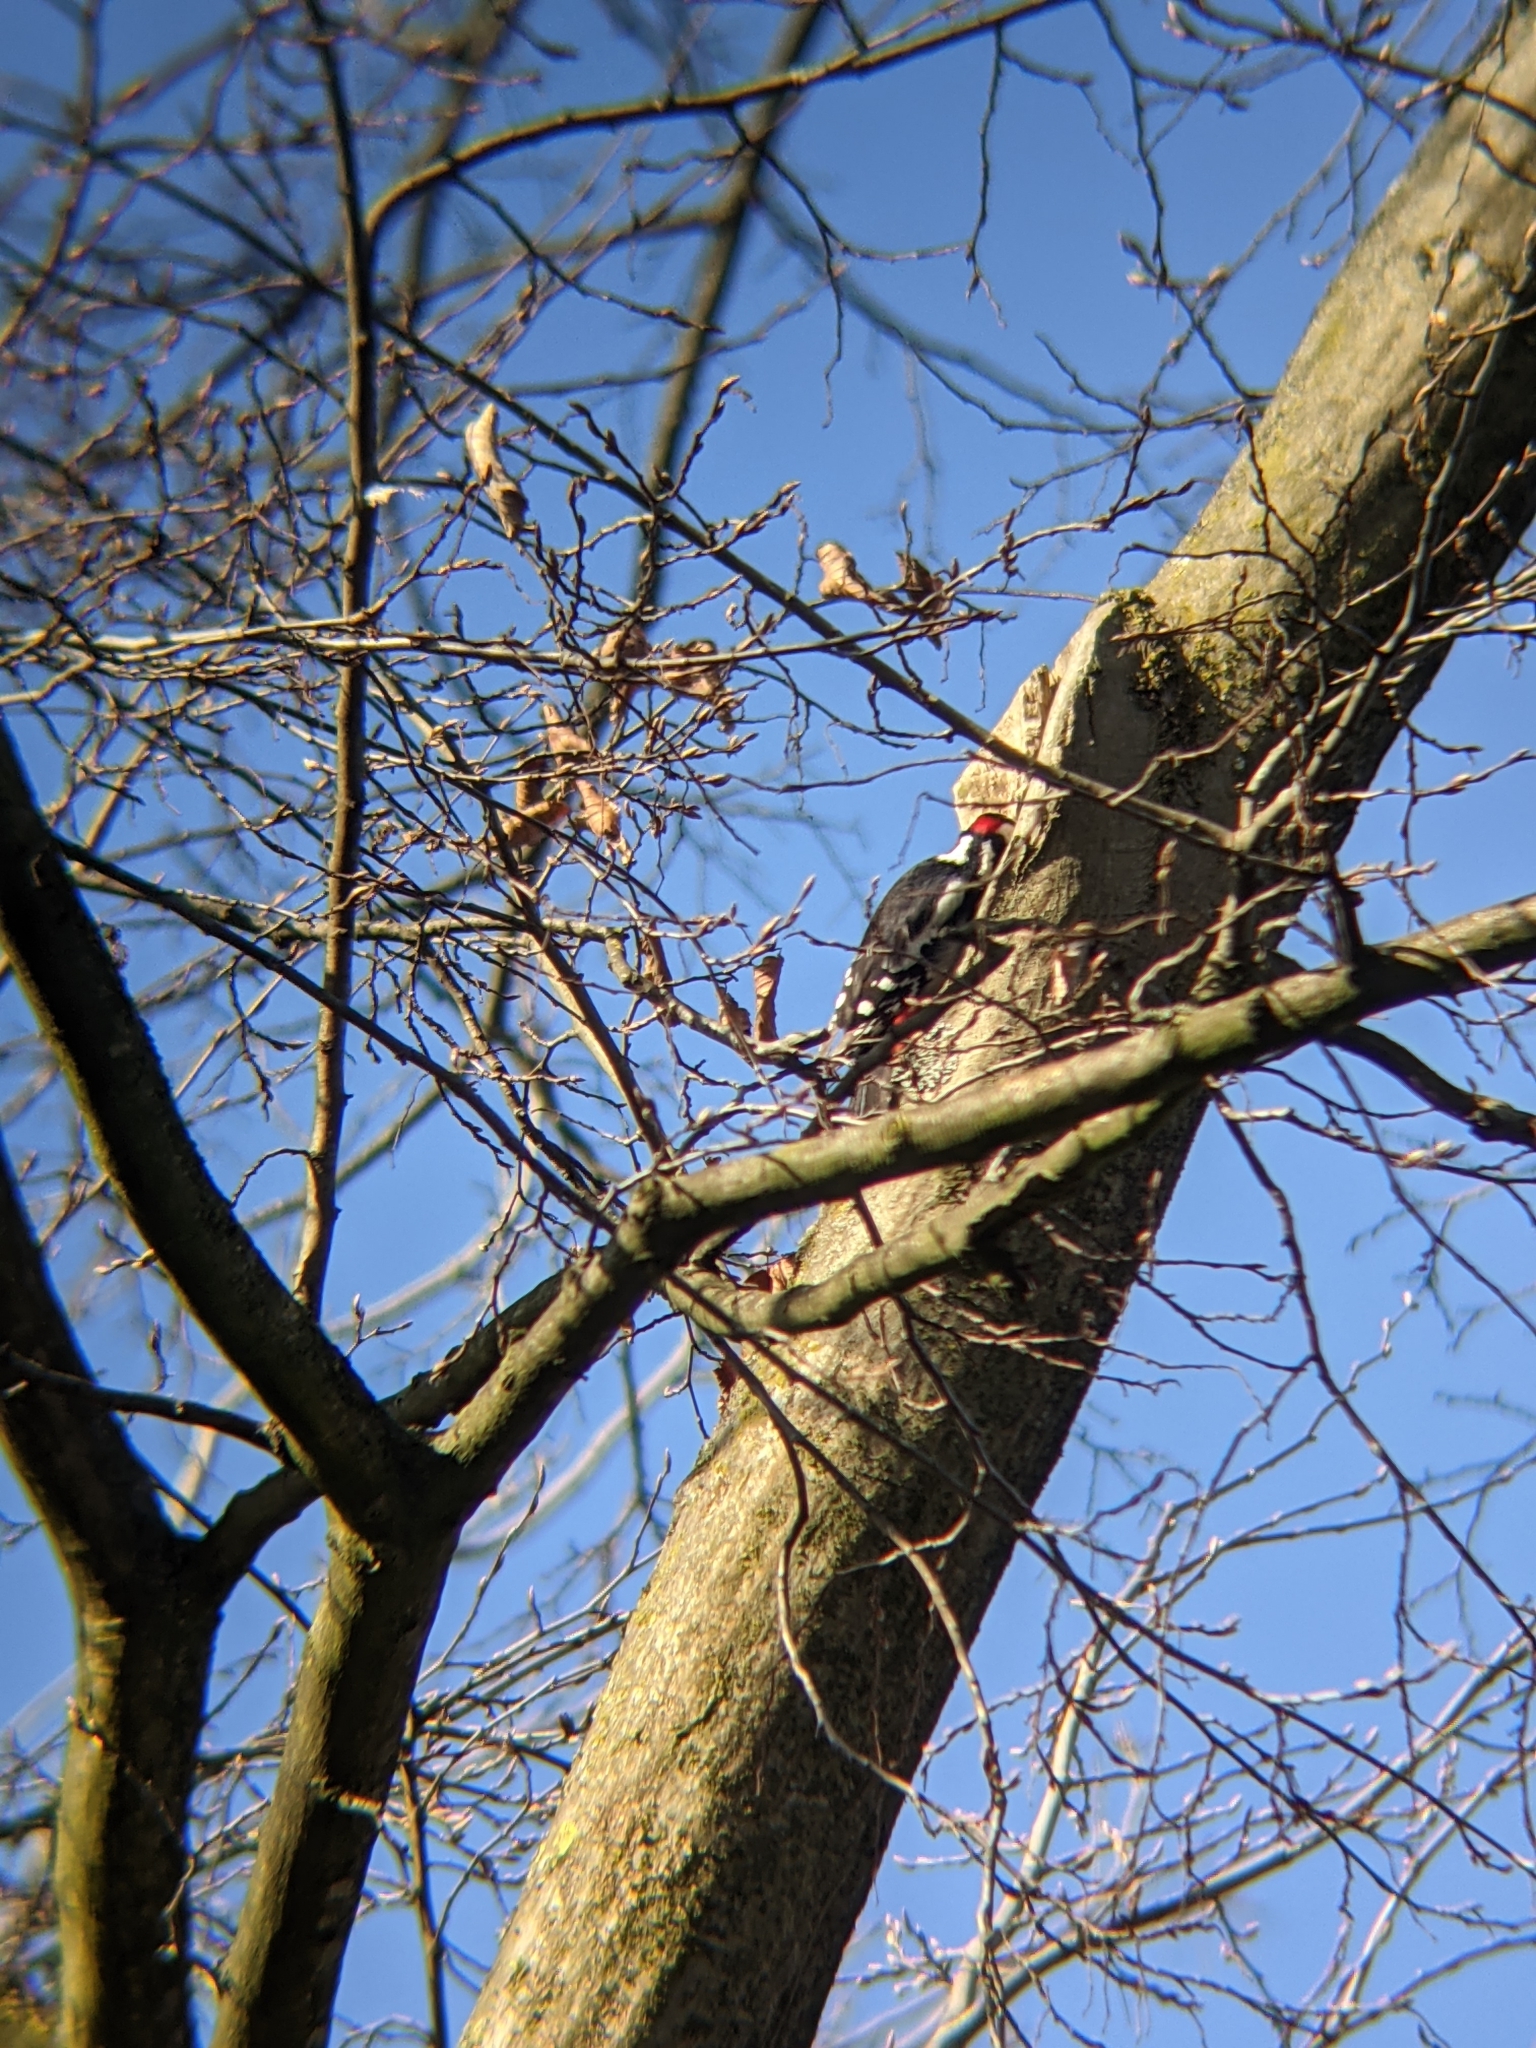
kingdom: Animalia
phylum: Chordata
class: Aves
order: Piciformes
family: Picidae
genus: Dendrocopos
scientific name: Dendrocopos major
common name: Great spotted woodpecker
